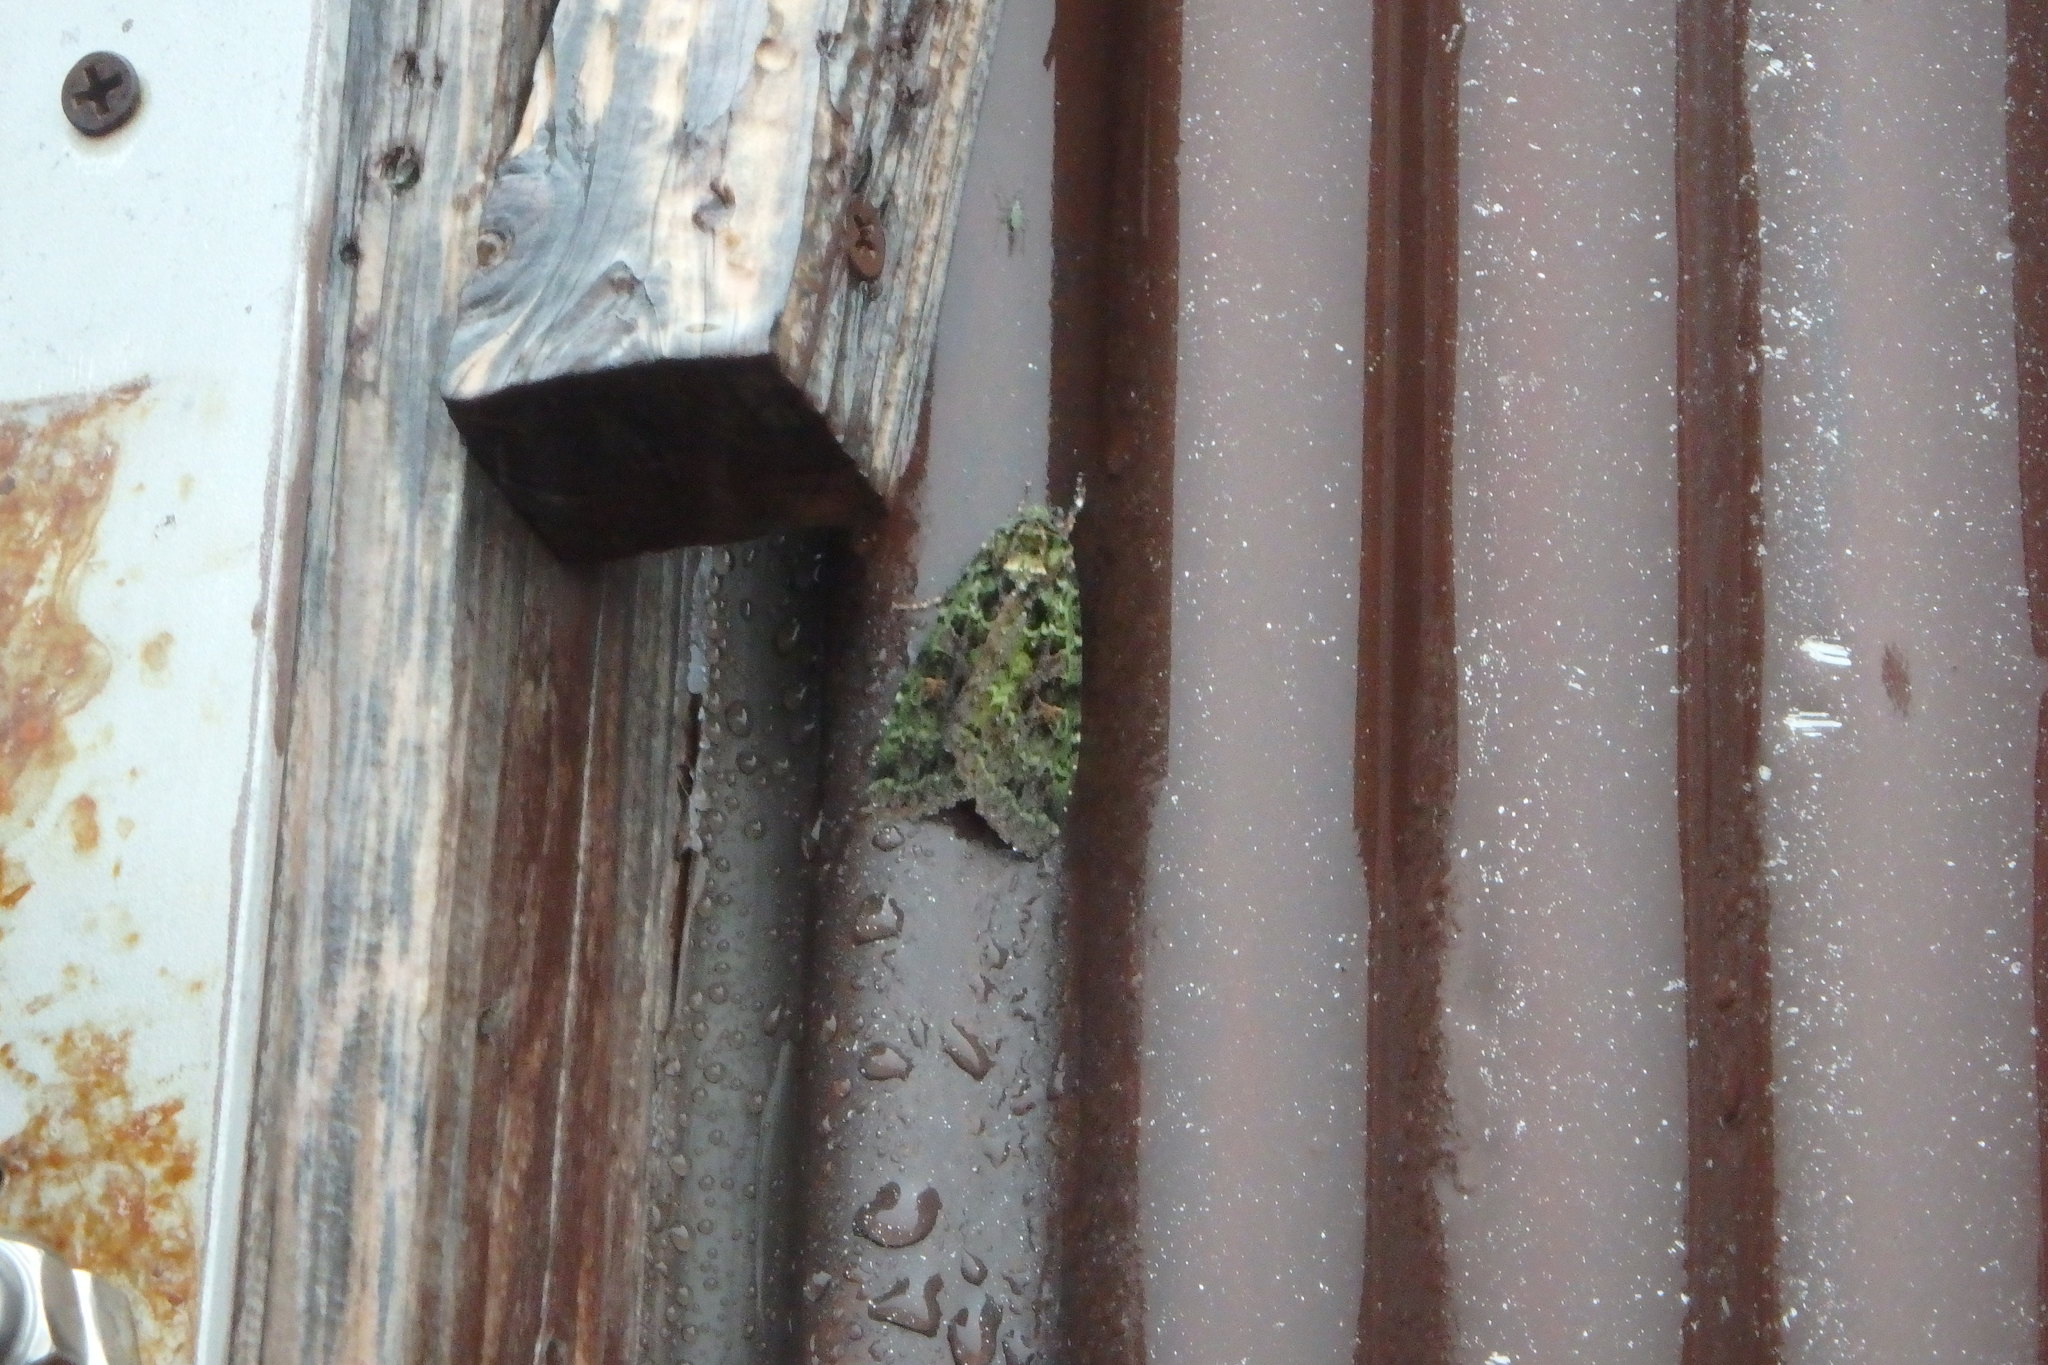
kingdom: Animalia
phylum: Arthropoda
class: Insecta
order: Lepidoptera
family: Noctuidae
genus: Anaplectoides
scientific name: Anaplectoides virens
